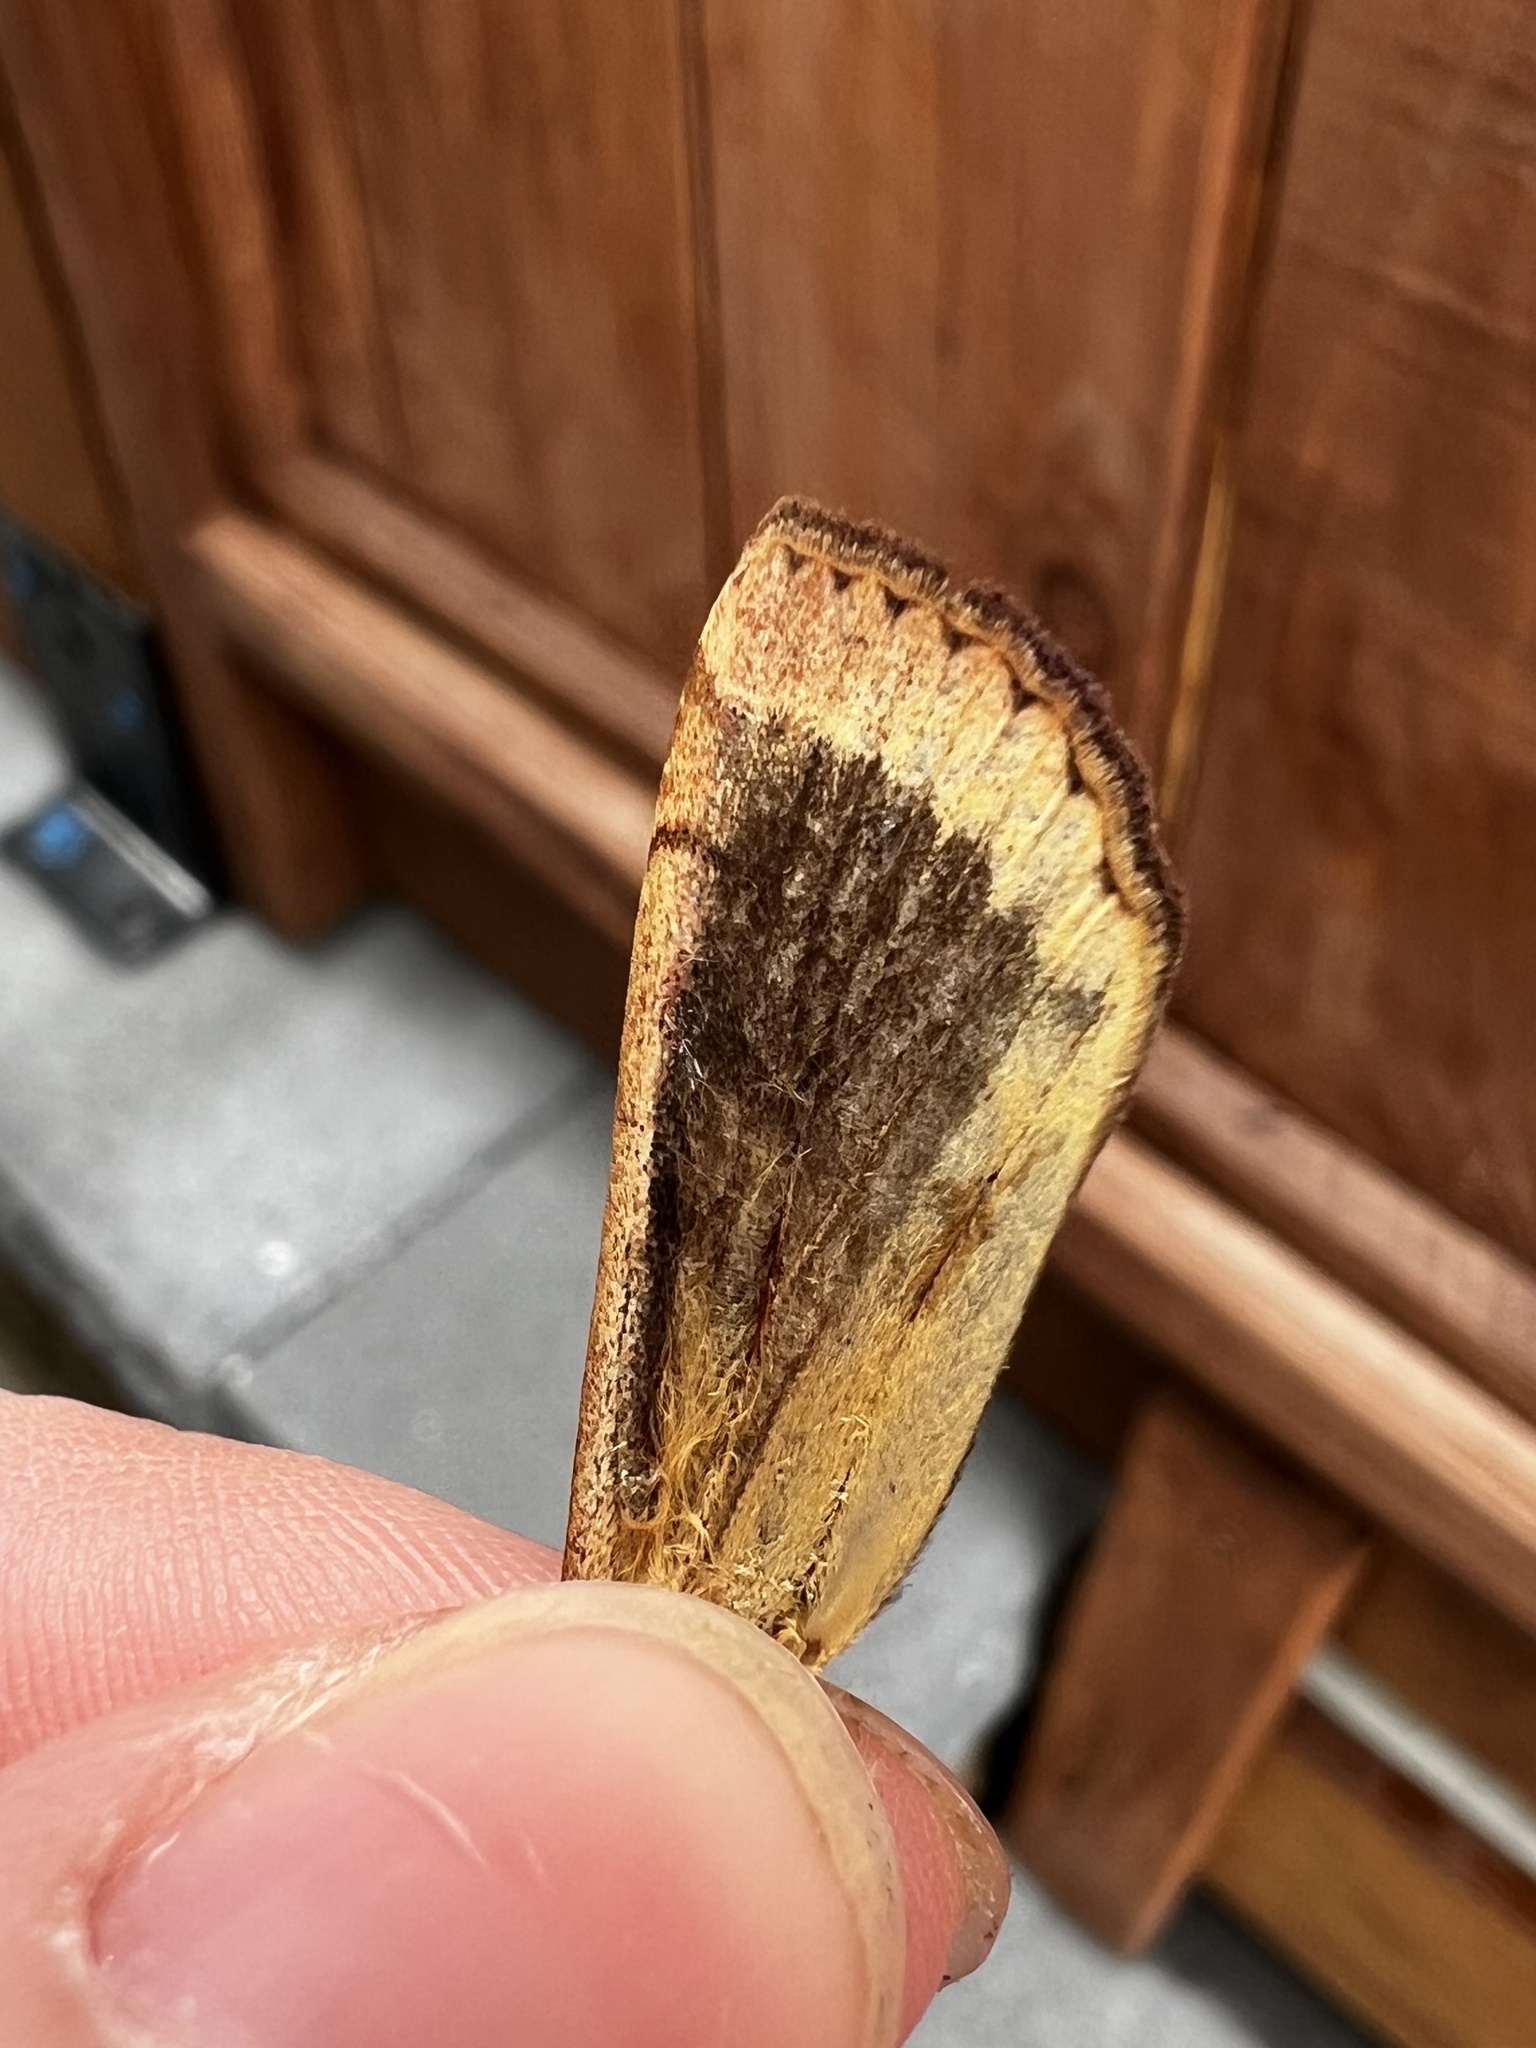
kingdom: Animalia
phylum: Arthropoda
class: Insecta
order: Lepidoptera
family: Noctuidae
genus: Noctua
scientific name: Noctua pronuba
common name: Large yellow underwing
